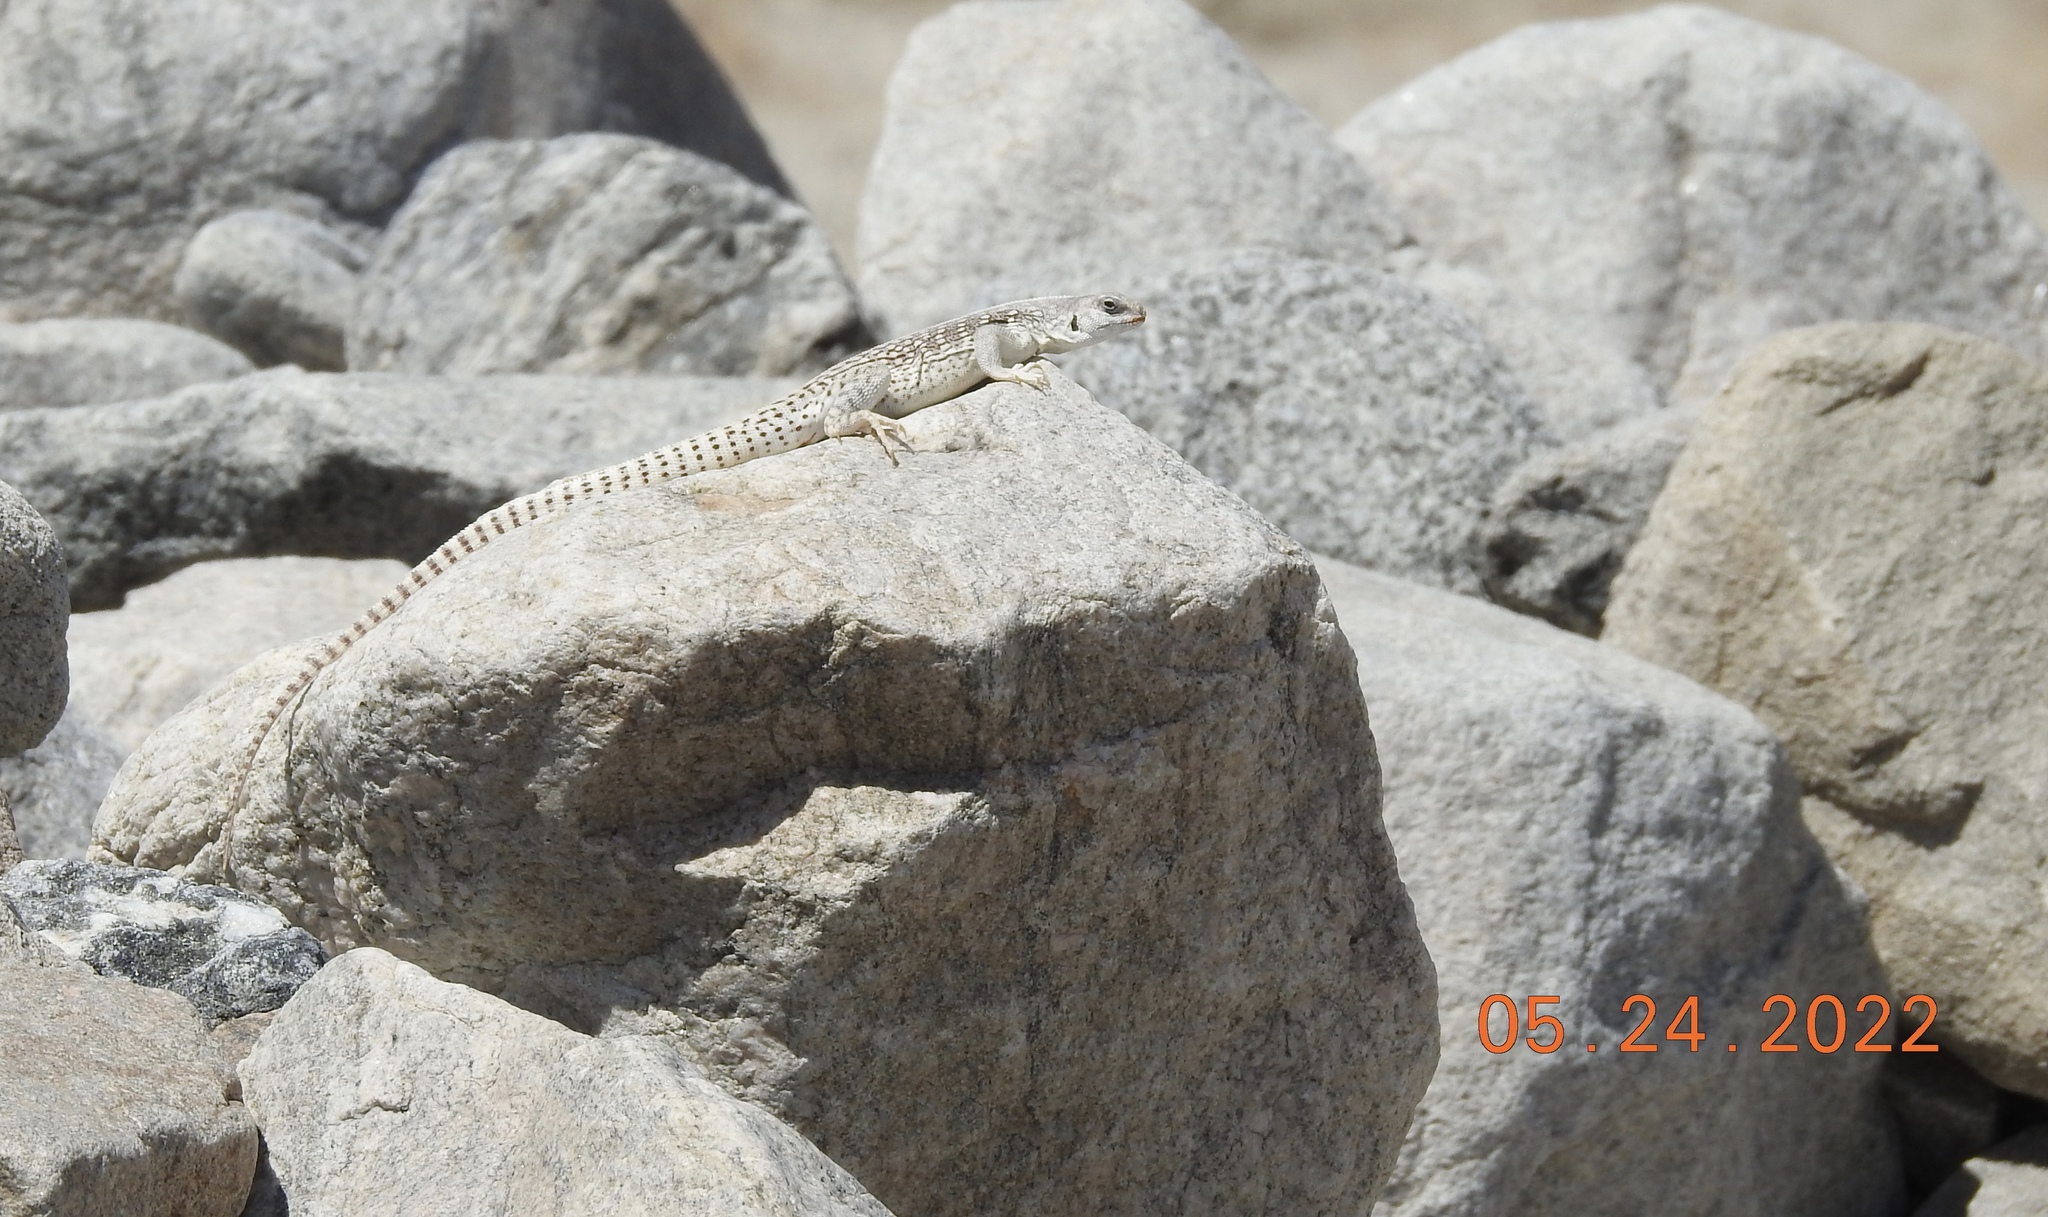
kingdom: Animalia
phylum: Chordata
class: Squamata
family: Iguanidae
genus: Dipsosaurus
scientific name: Dipsosaurus dorsalis
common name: Desert iguana
